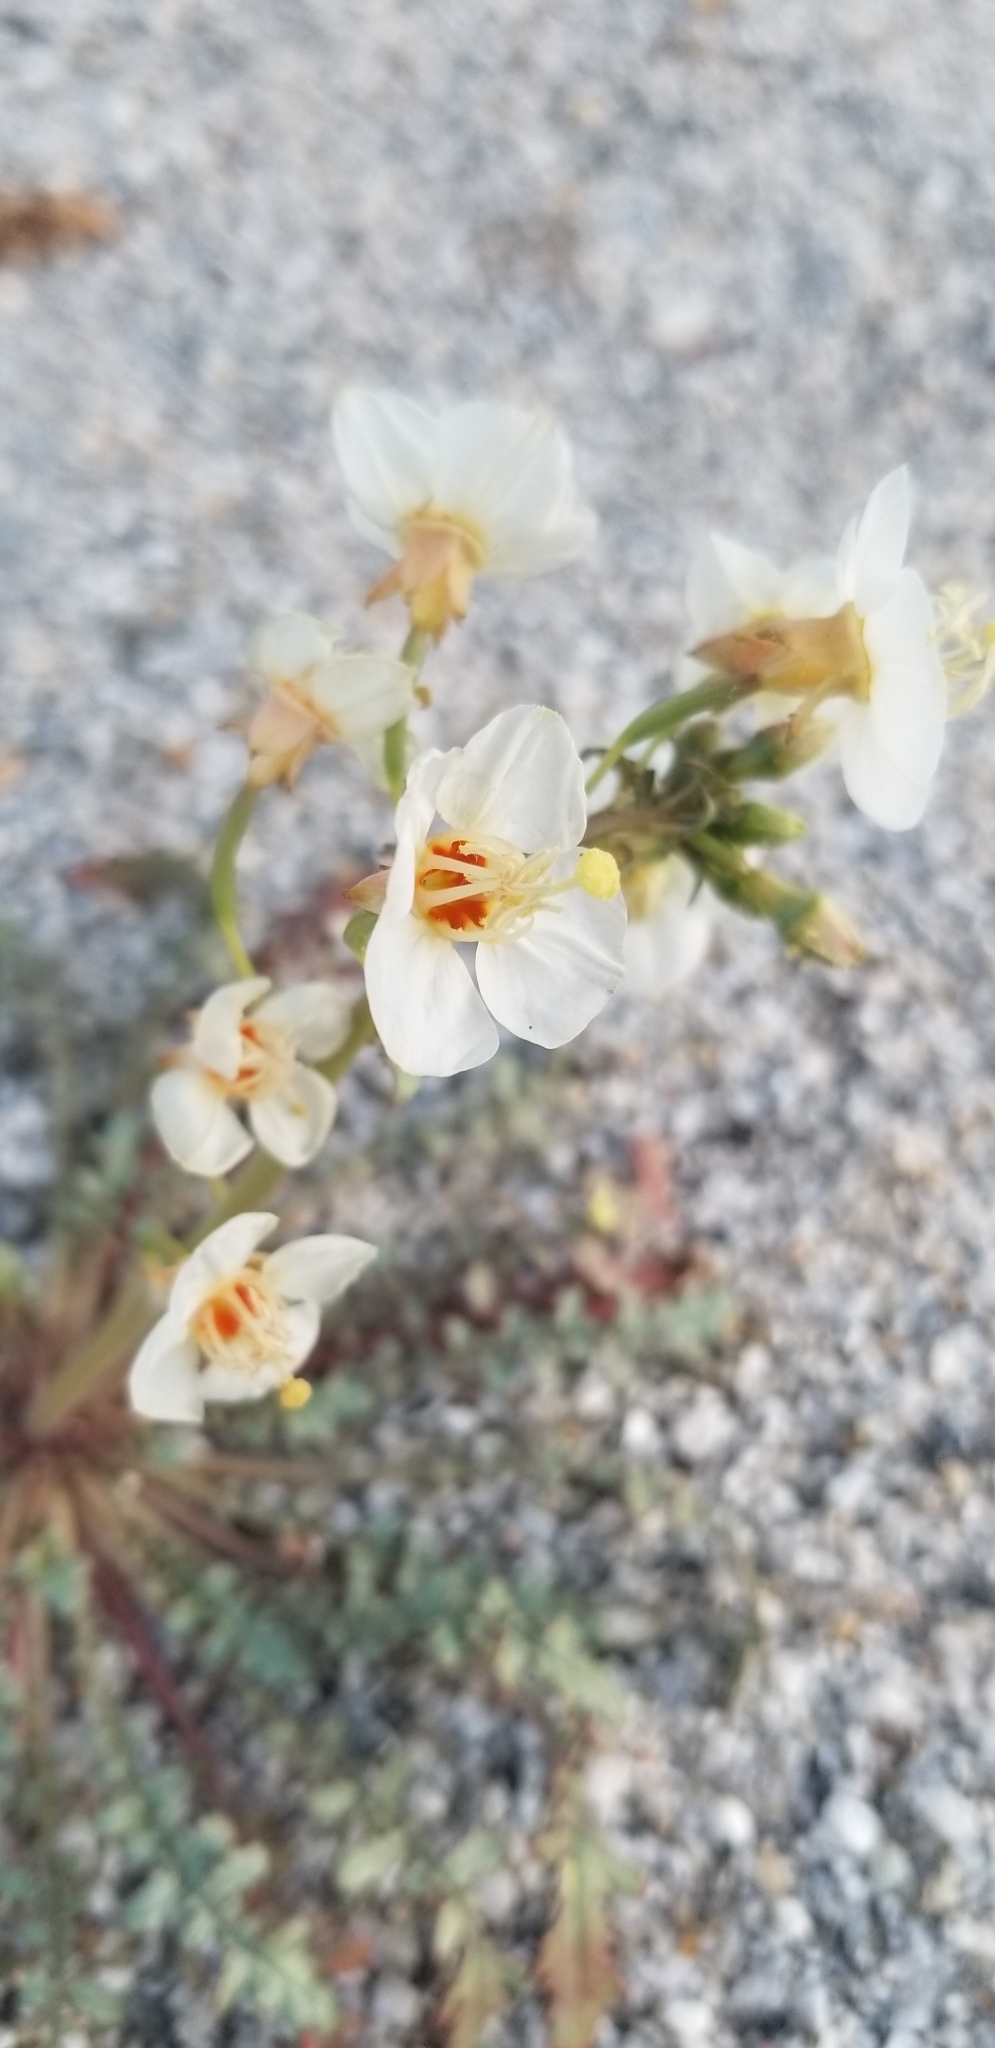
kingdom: Plantae
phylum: Tracheophyta
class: Magnoliopsida
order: Myrtales
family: Onagraceae
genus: Chylismia
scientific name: Chylismia claviformis
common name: Browneyes
